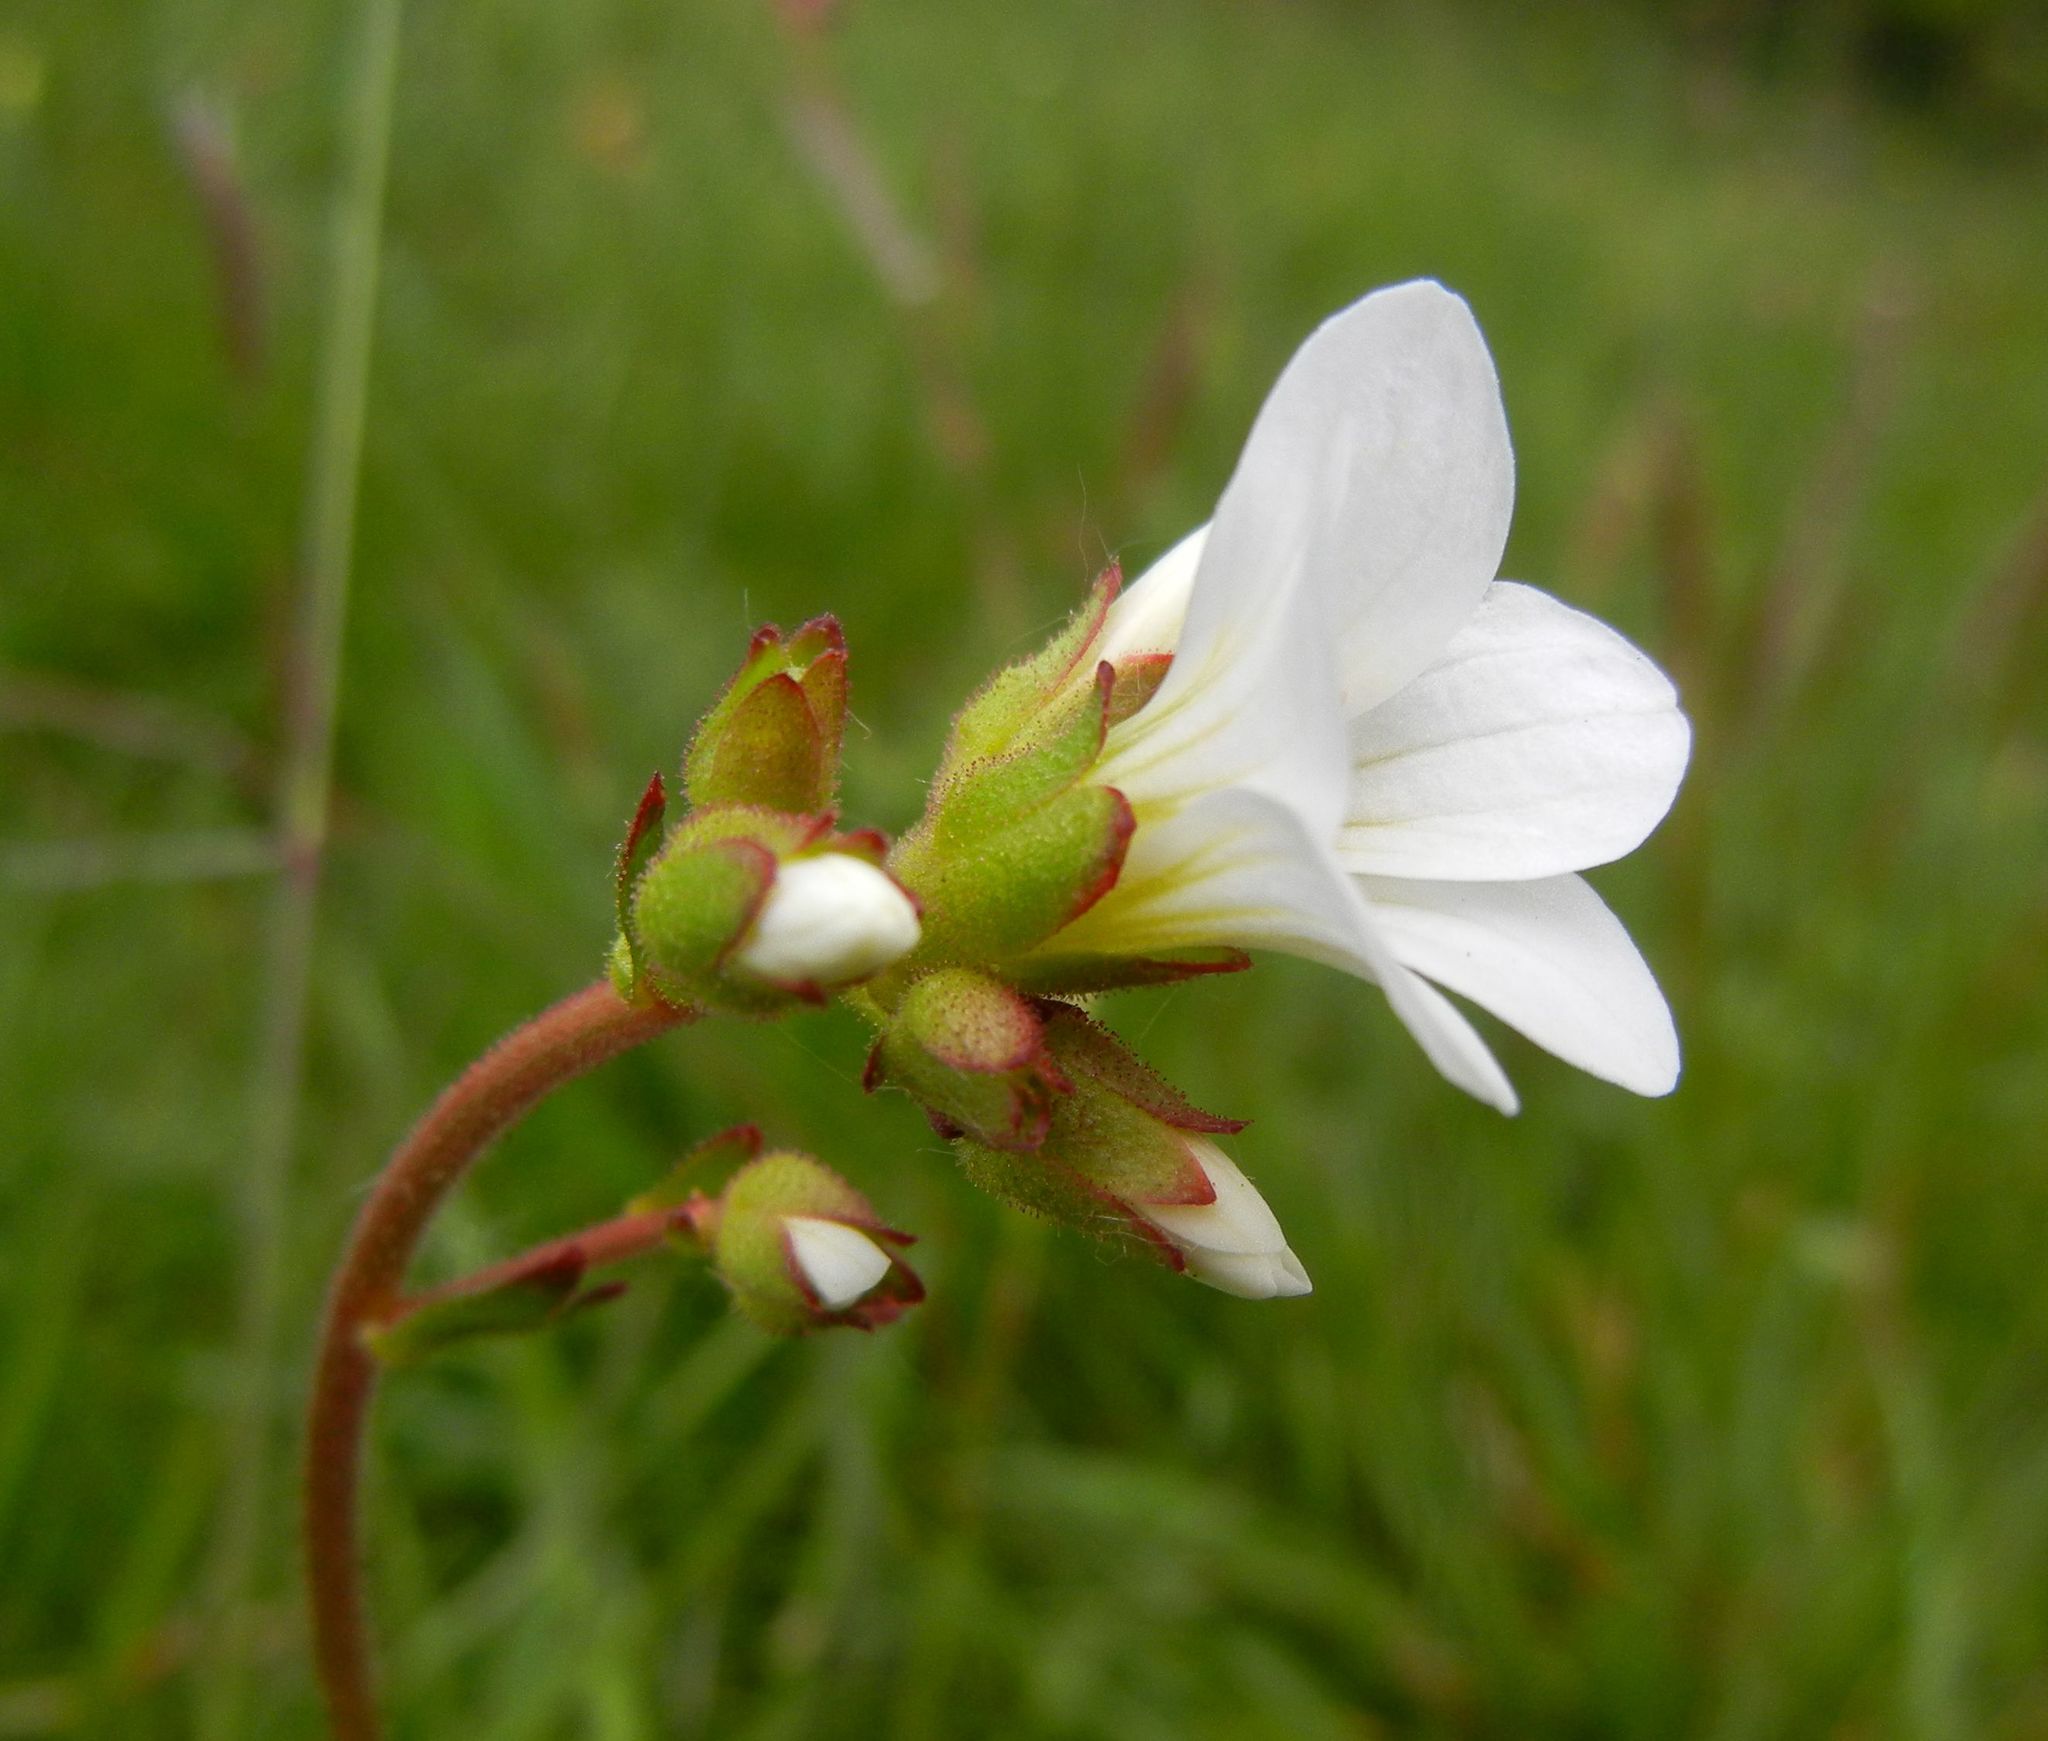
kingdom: Plantae
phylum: Tracheophyta
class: Magnoliopsida
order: Saxifragales
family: Saxifragaceae
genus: Saxifraga
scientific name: Saxifraga granulata
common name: Meadow saxifrage
